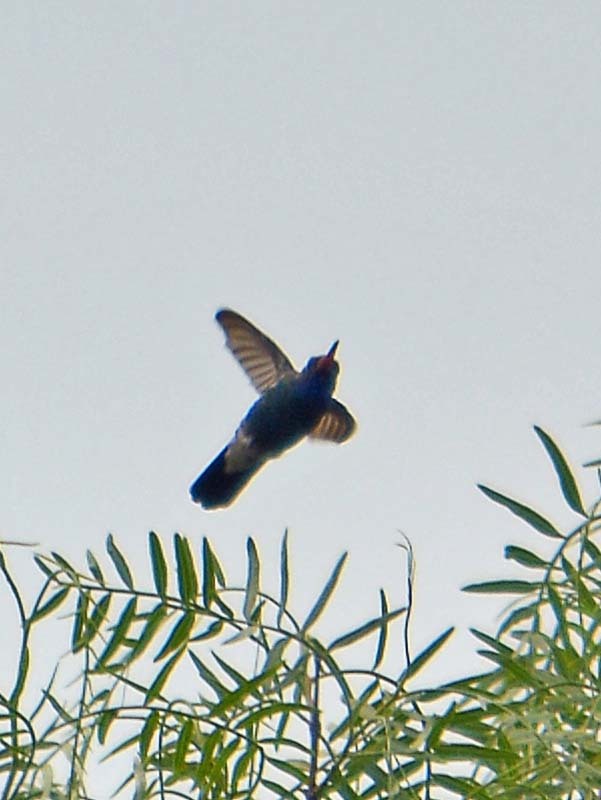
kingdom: Animalia
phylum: Chordata
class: Aves
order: Apodiformes
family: Trochilidae
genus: Cynanthus
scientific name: Cynanthus latirostris
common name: Broad-billed hummingbird
